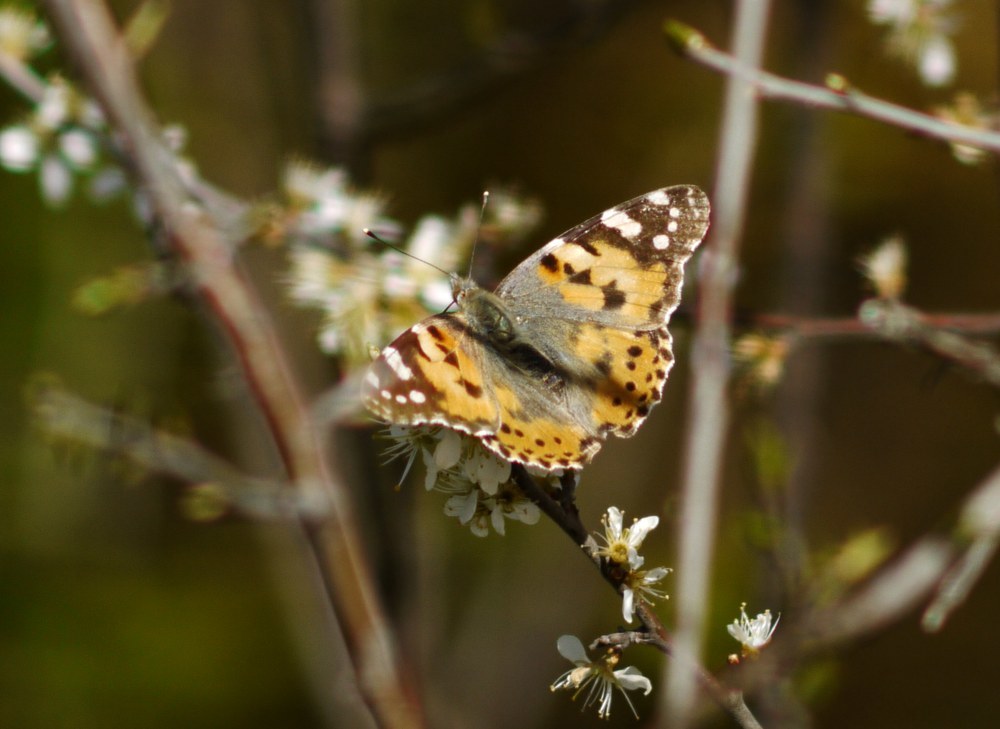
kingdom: Animalia
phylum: Arthropoda
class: Insecta
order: Lepidoptera
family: Nymphalidae
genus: Vanessa
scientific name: Vanessa cardui
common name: Painted lady
